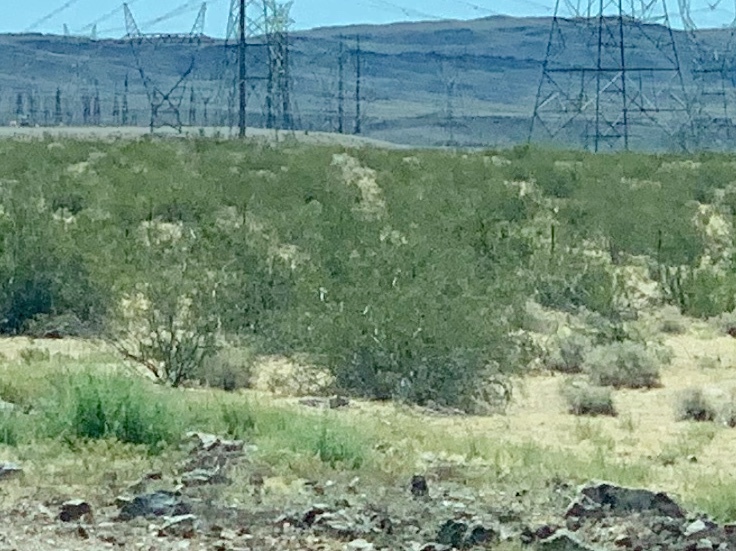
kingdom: Plantae
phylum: Tracheophyta
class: Magnoliopsida
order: Zygophyllales
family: Zygophyllaceae
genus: Larrea
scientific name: Larrea tridentata
